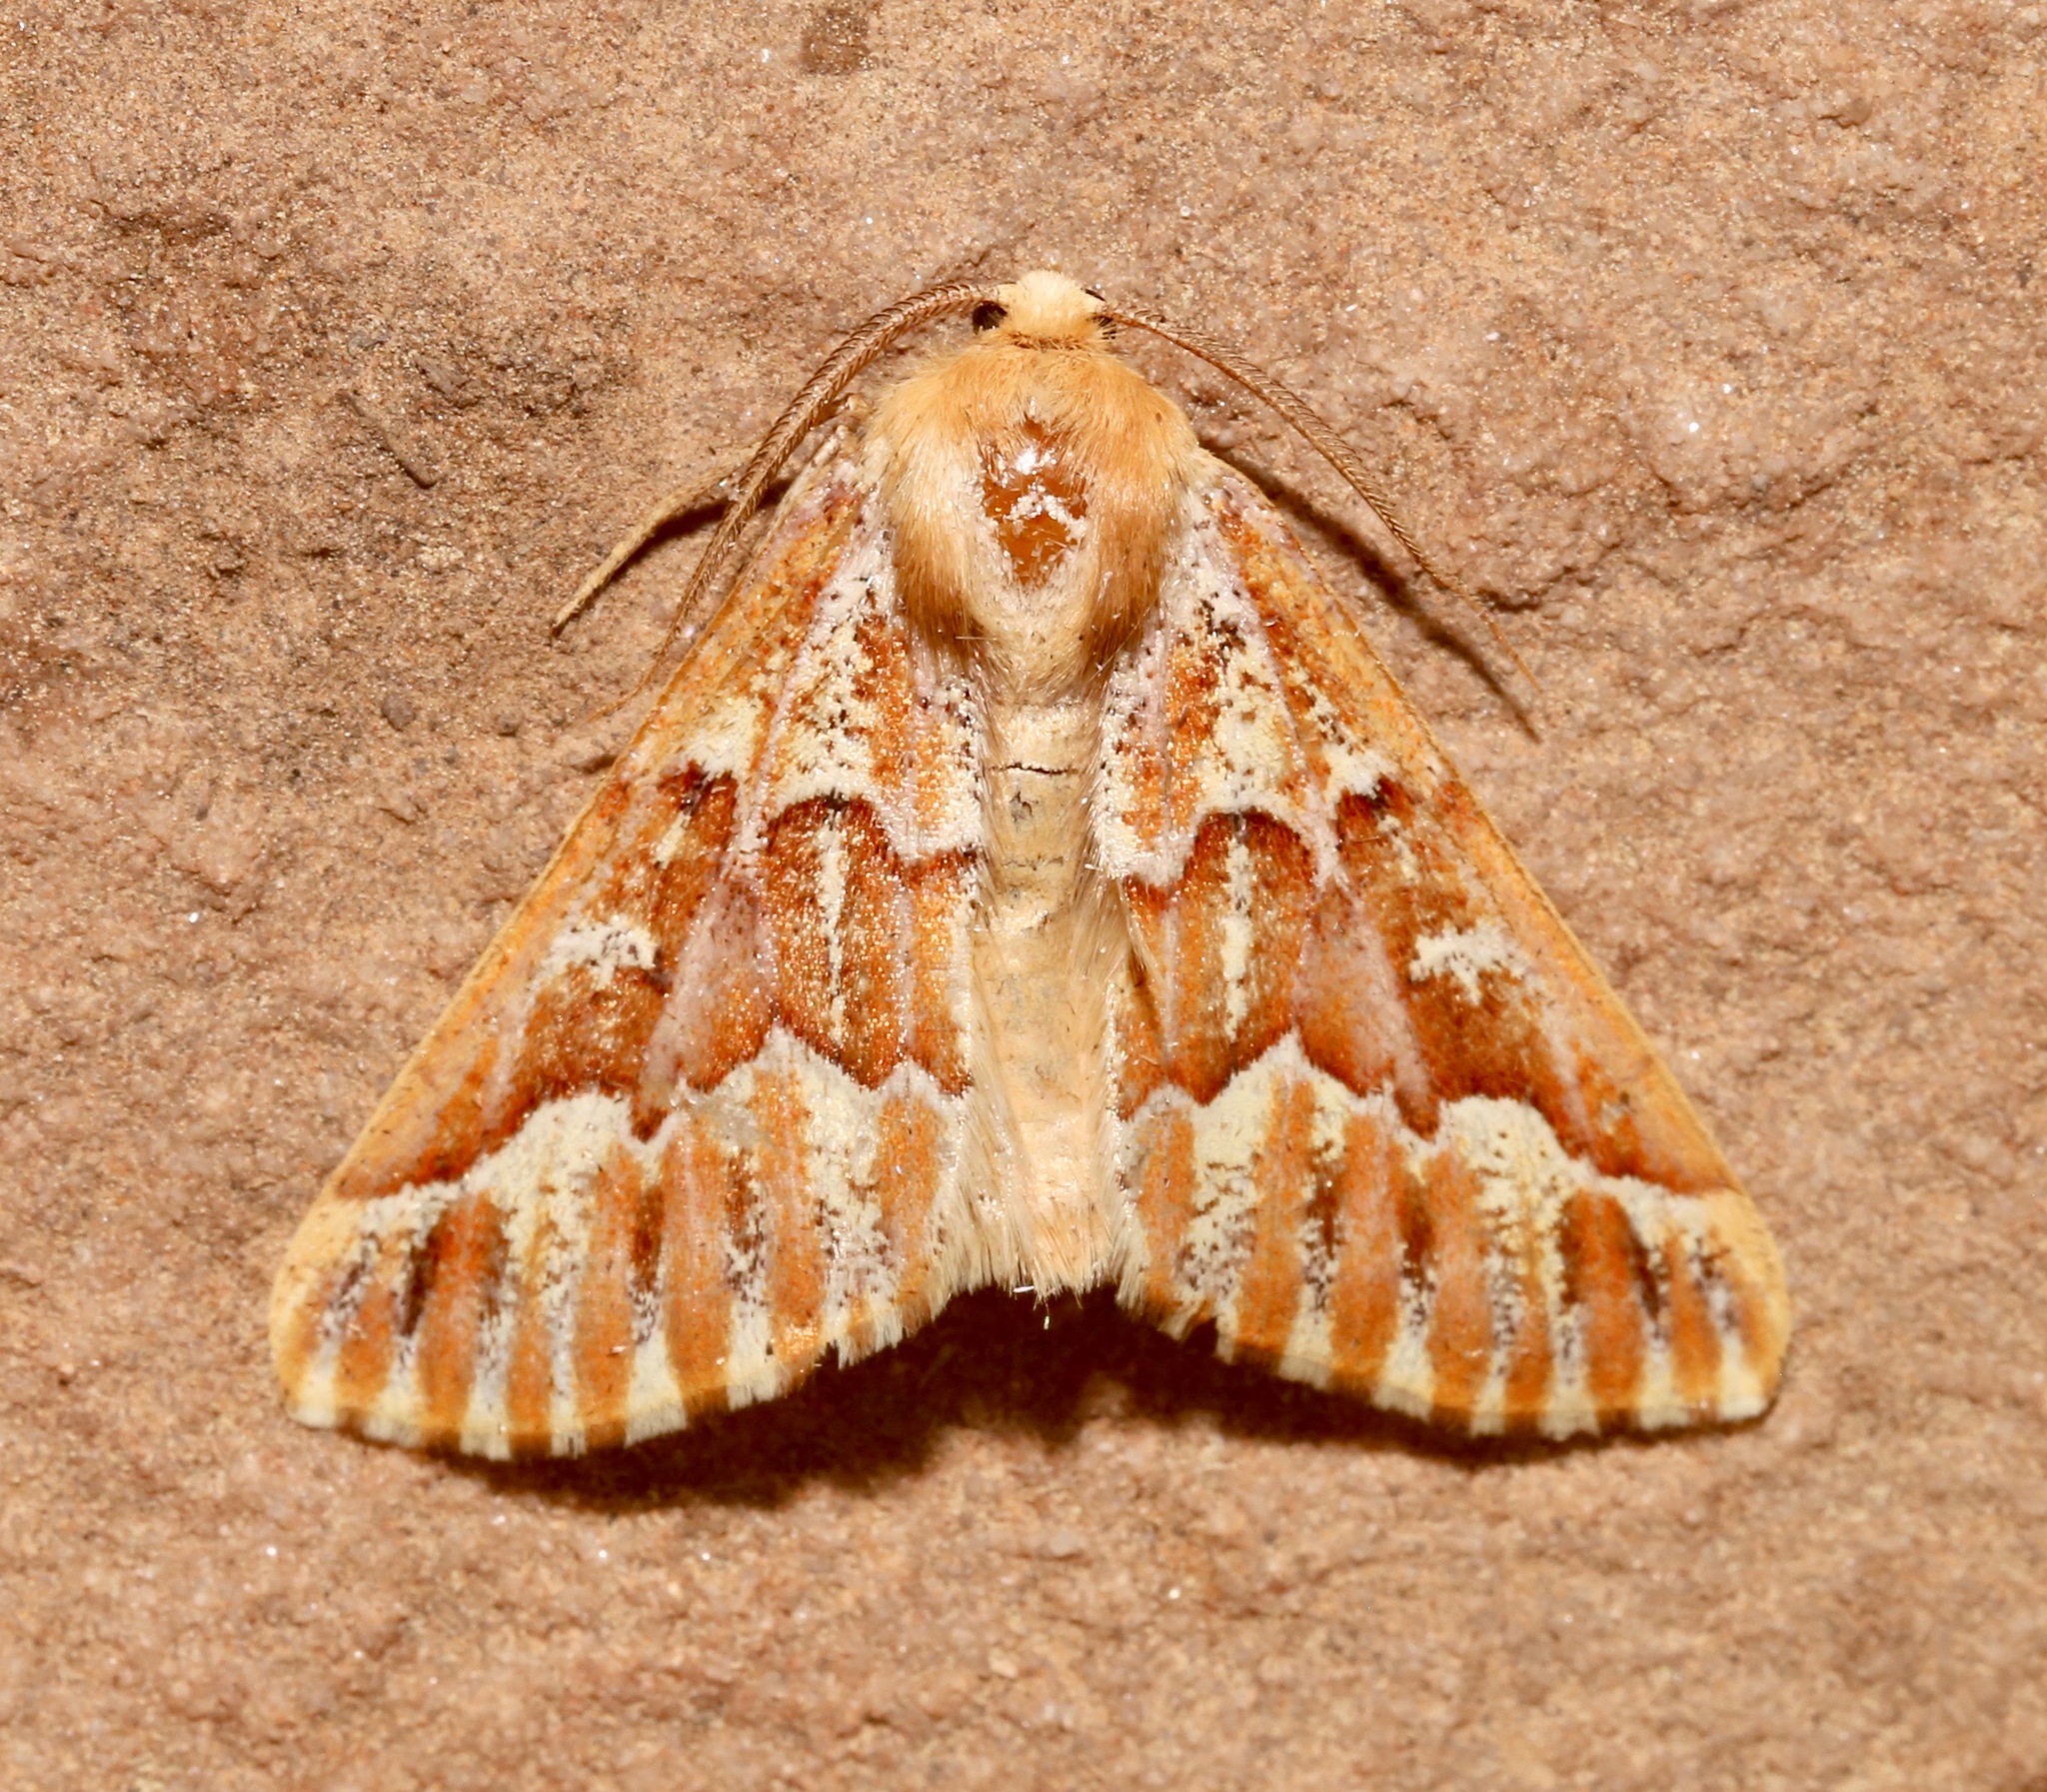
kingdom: Animalia
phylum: Arthropoda
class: Insecta
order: Lepidoptera
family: Geometridae
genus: Caripeta
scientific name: Caripeta aequaliaria
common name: Red girdle moth
